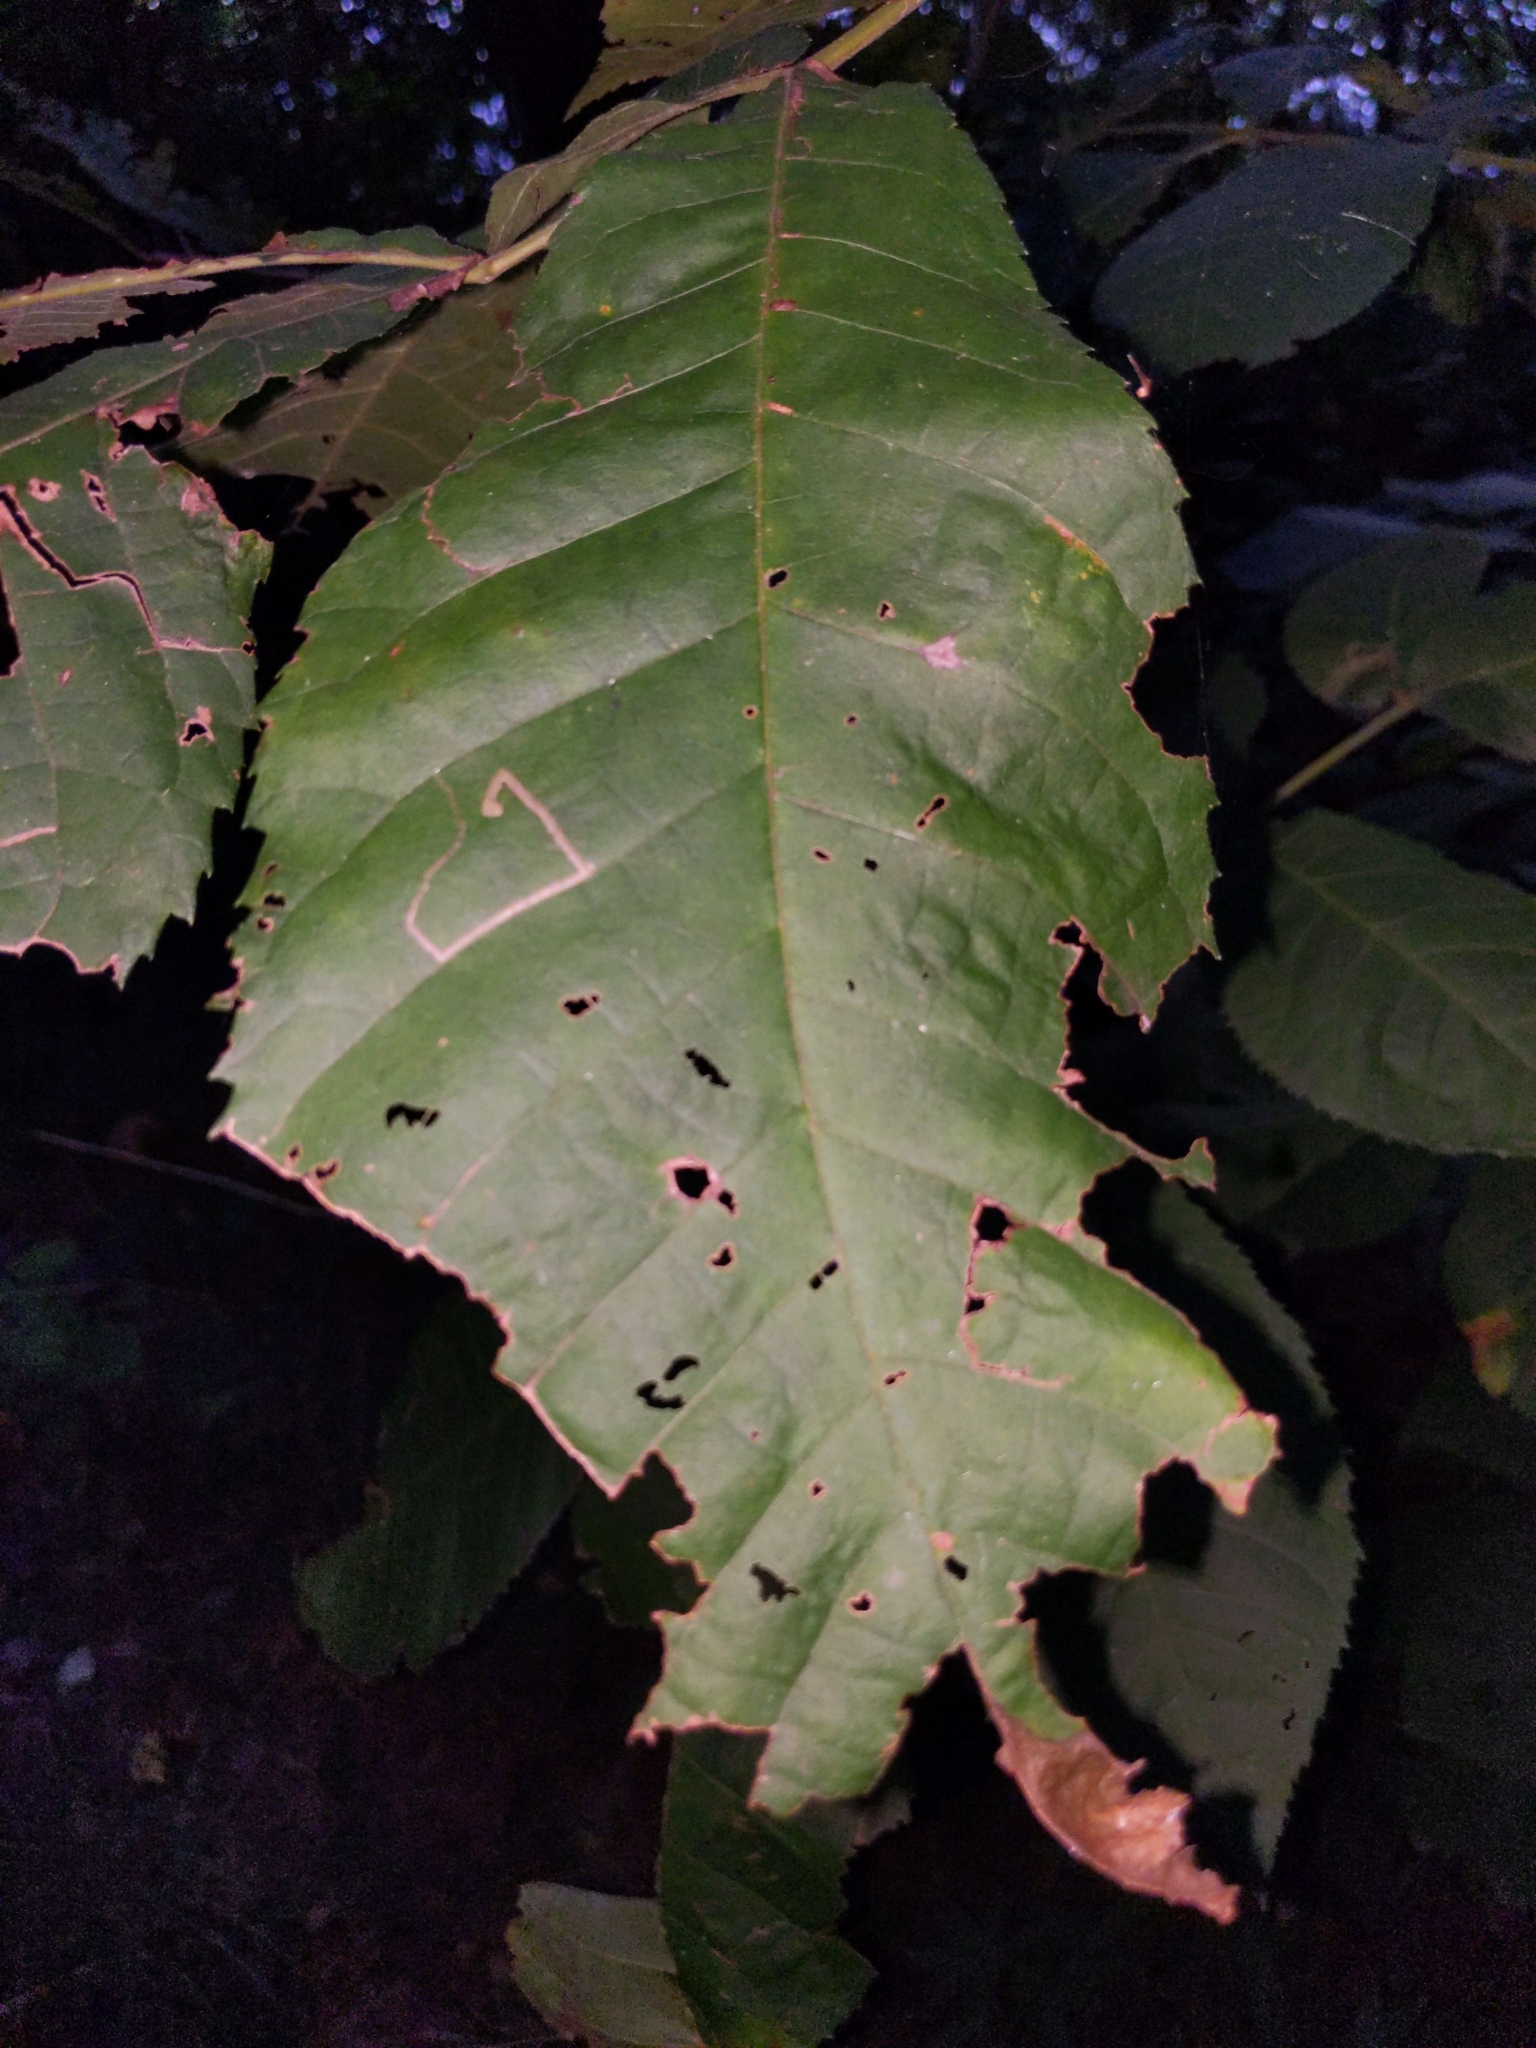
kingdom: Animalia
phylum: Arthropoda
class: Insecta
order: Lepidoptera
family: Nepticulidae
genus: Stigmella
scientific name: Stigmella betulicola
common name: Common birch pigmy
